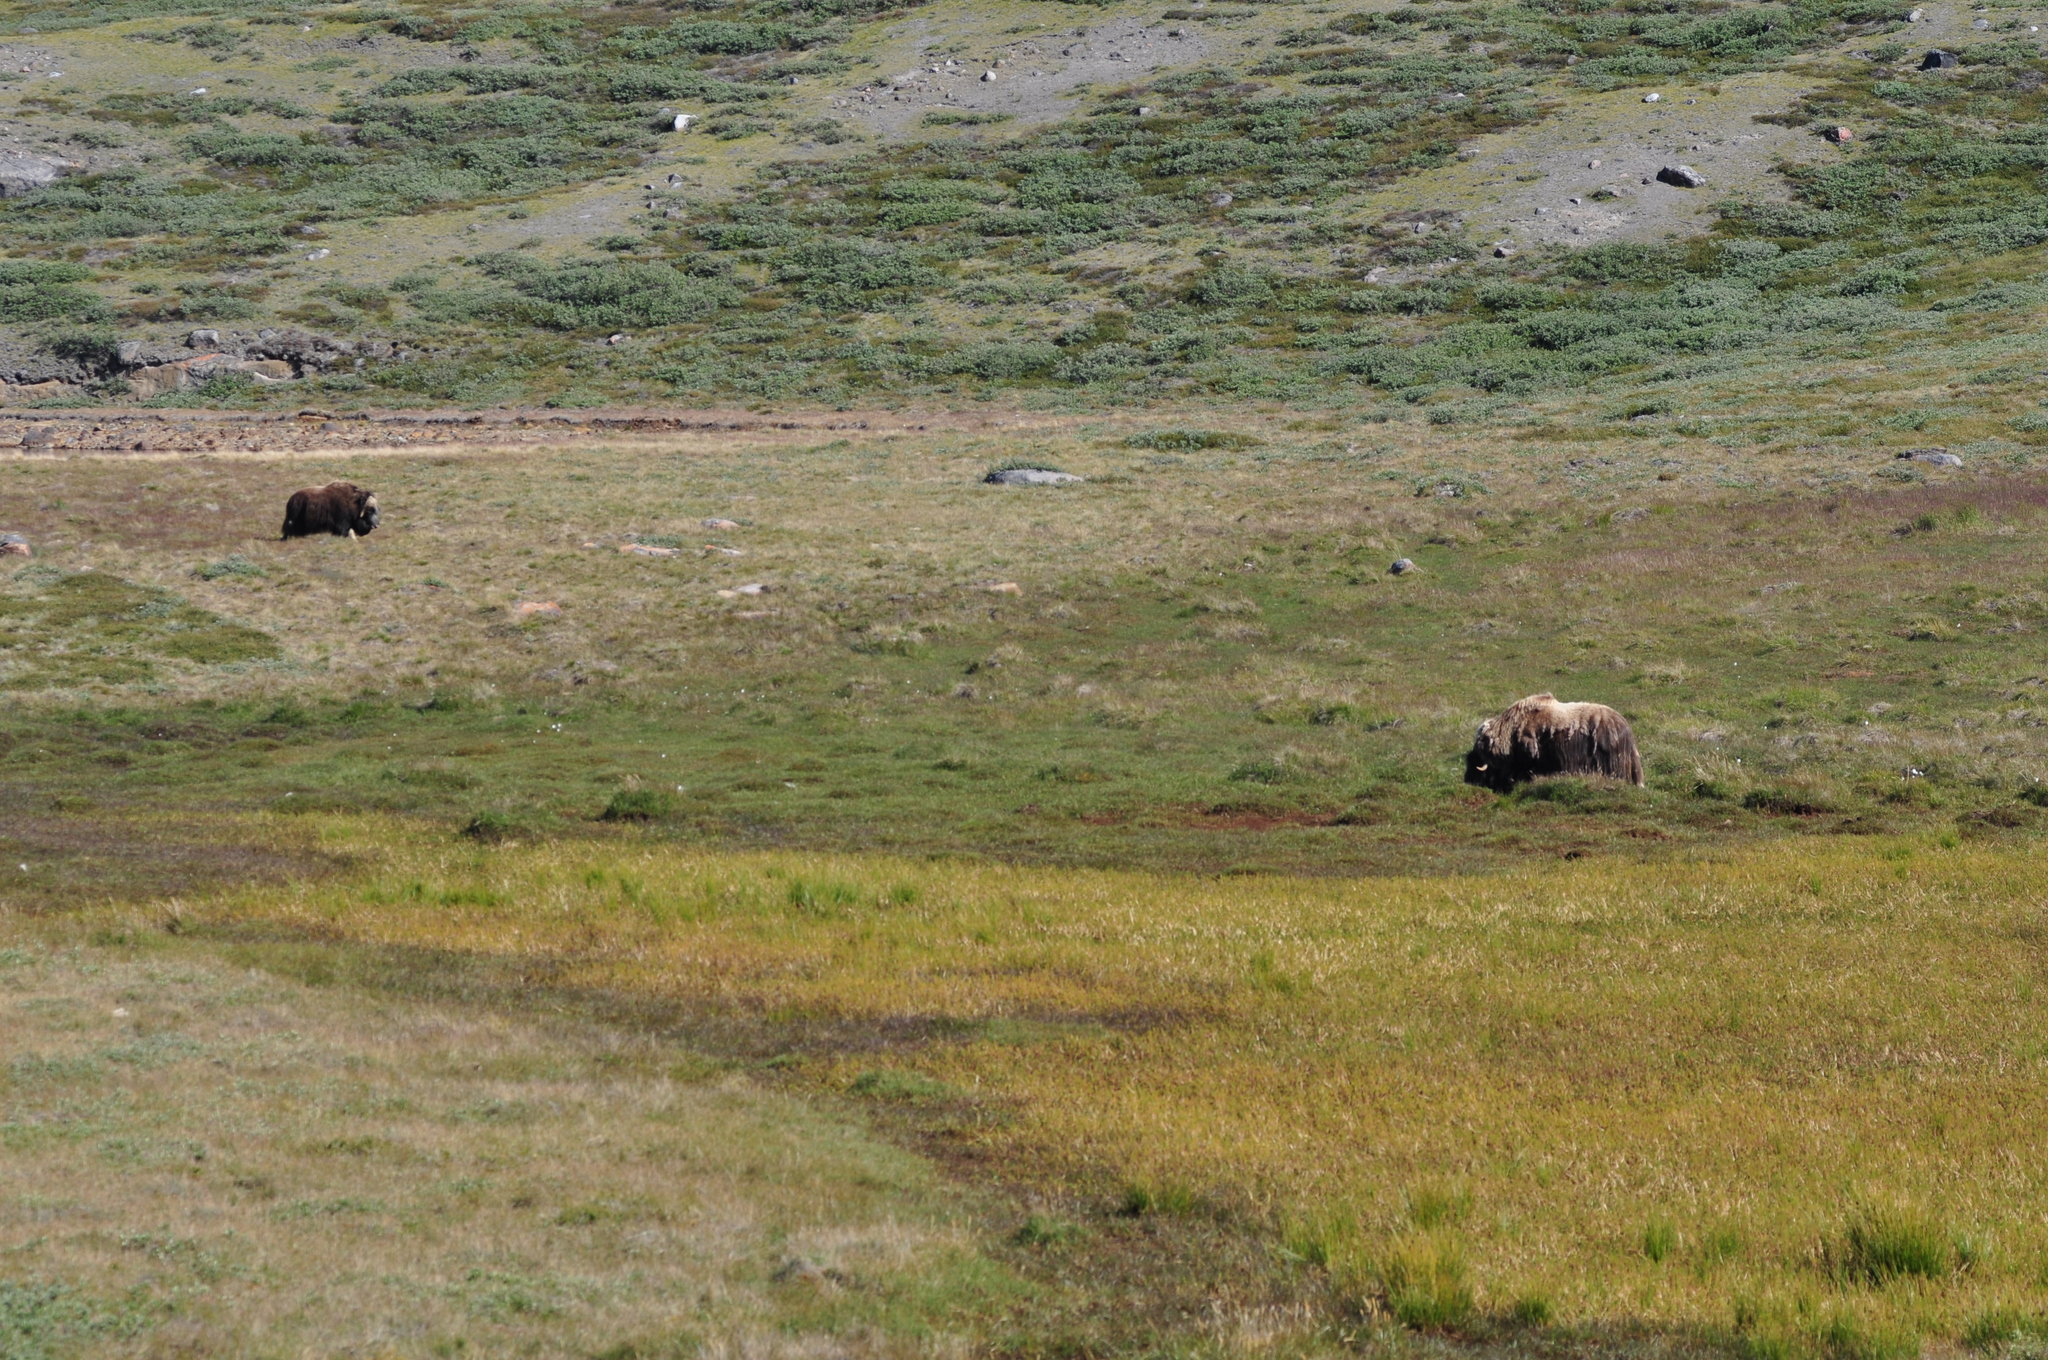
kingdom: Animalia
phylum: Chordata
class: Mammalia
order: Artiodactyla
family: Bovidae
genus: Ovibos
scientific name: Ovibos moschatus
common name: Muskox
